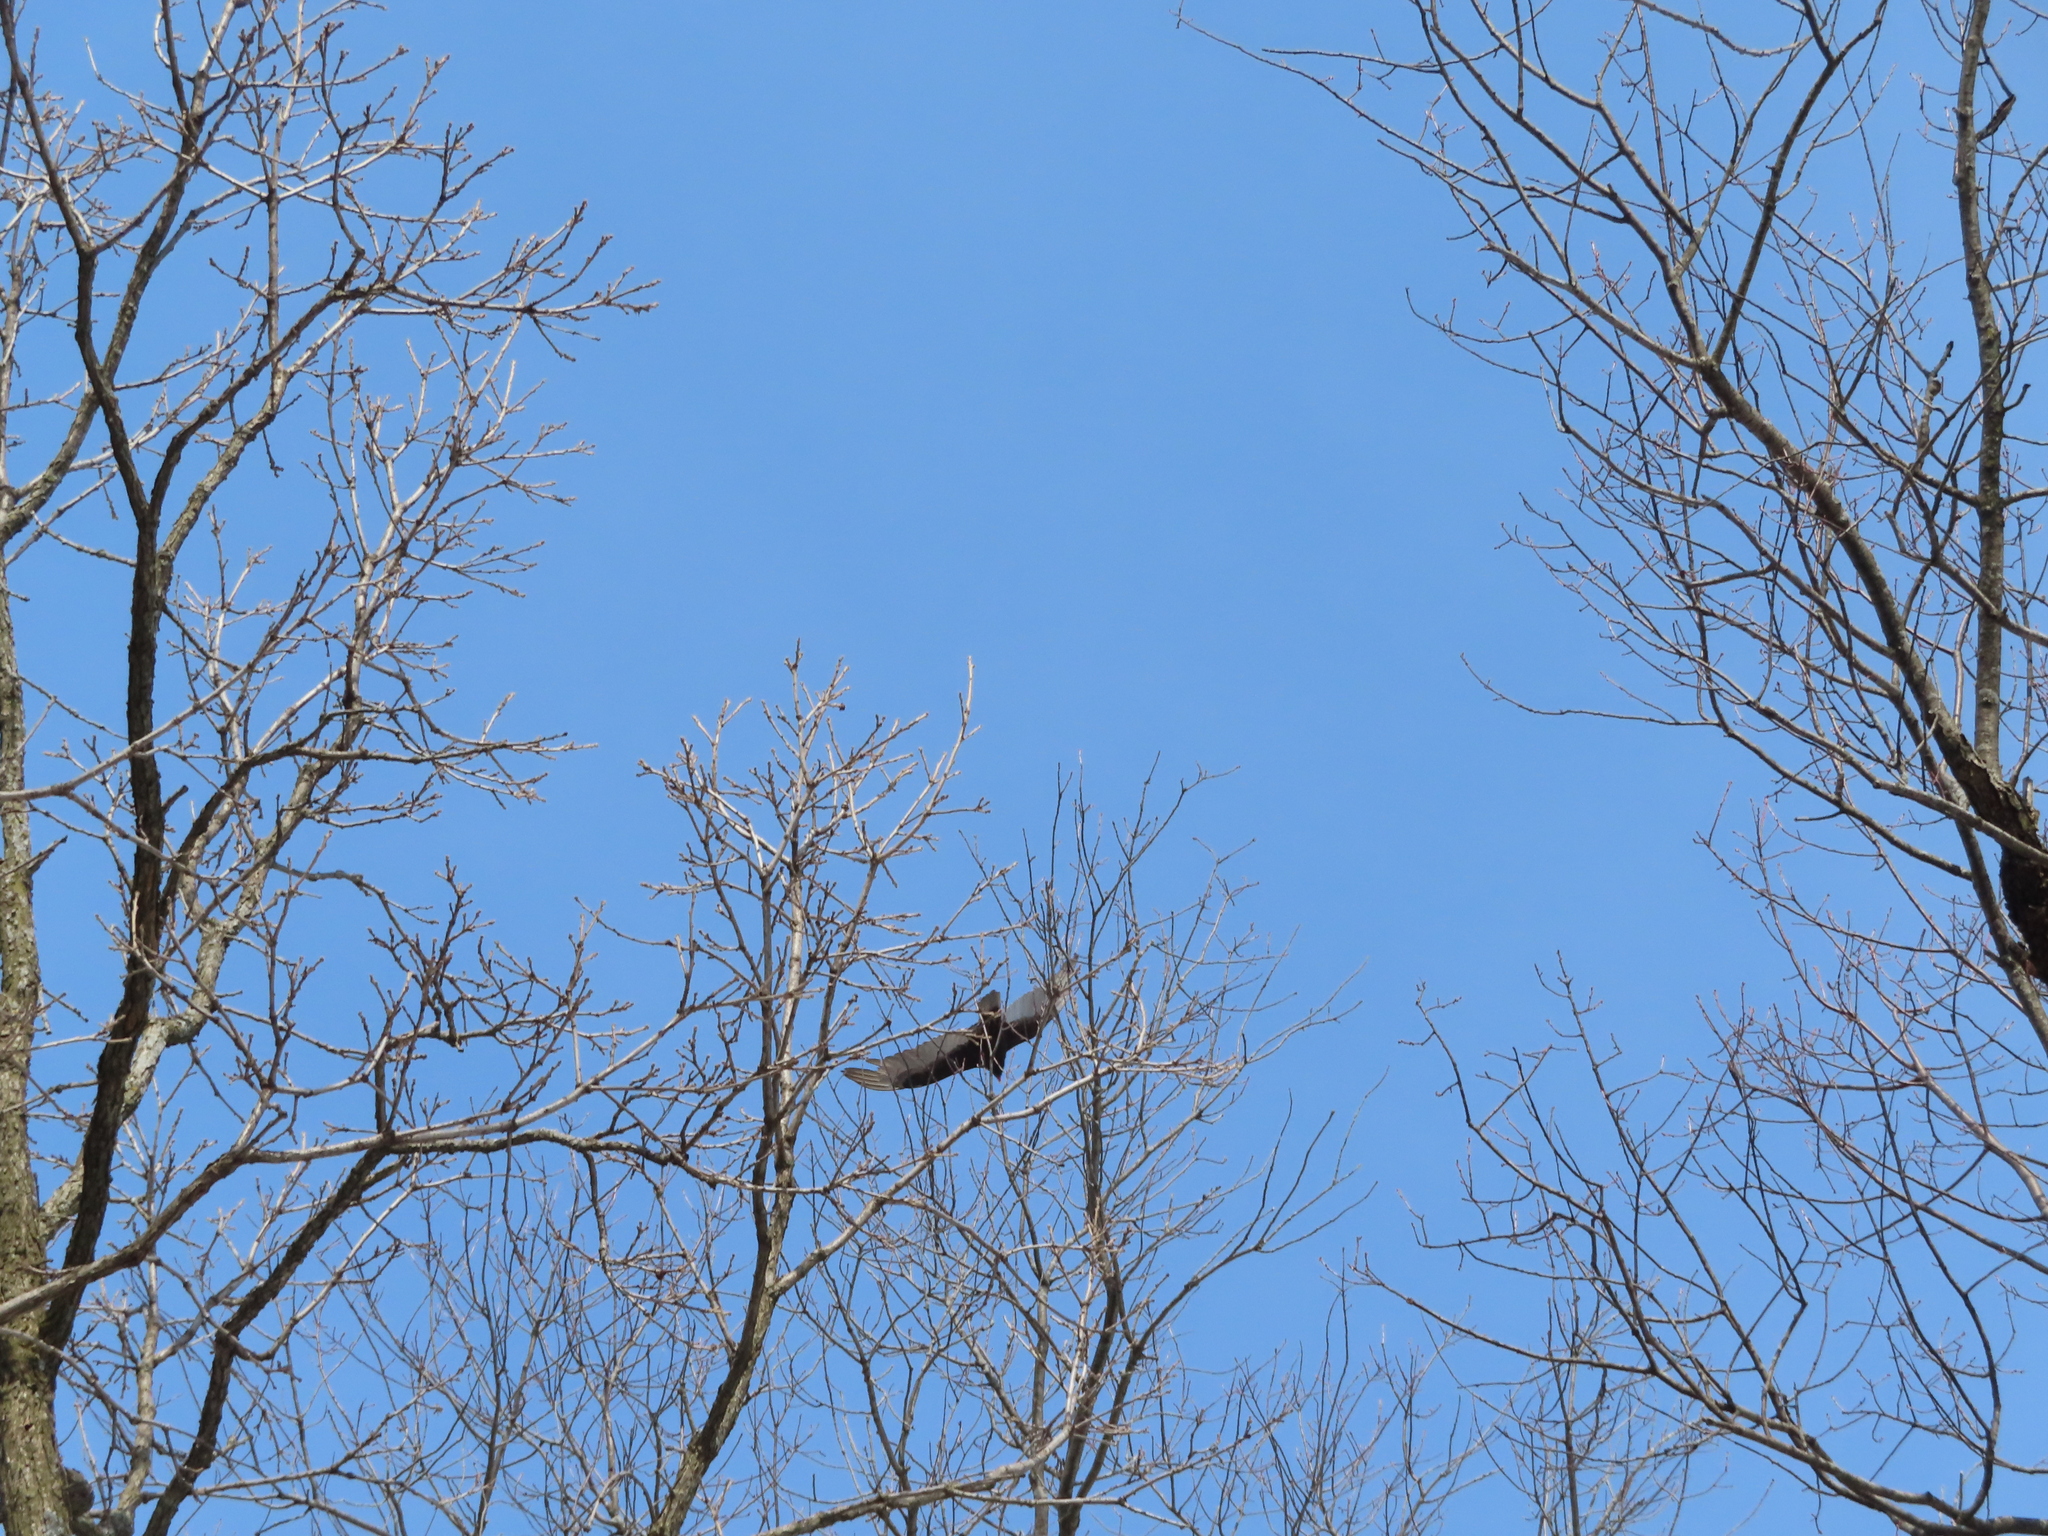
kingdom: Animalia
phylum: Chordata
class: Aves
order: Accipitriformes
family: Cathartidae
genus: Cathartes
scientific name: Cathartes aura
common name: Turkey vulture
